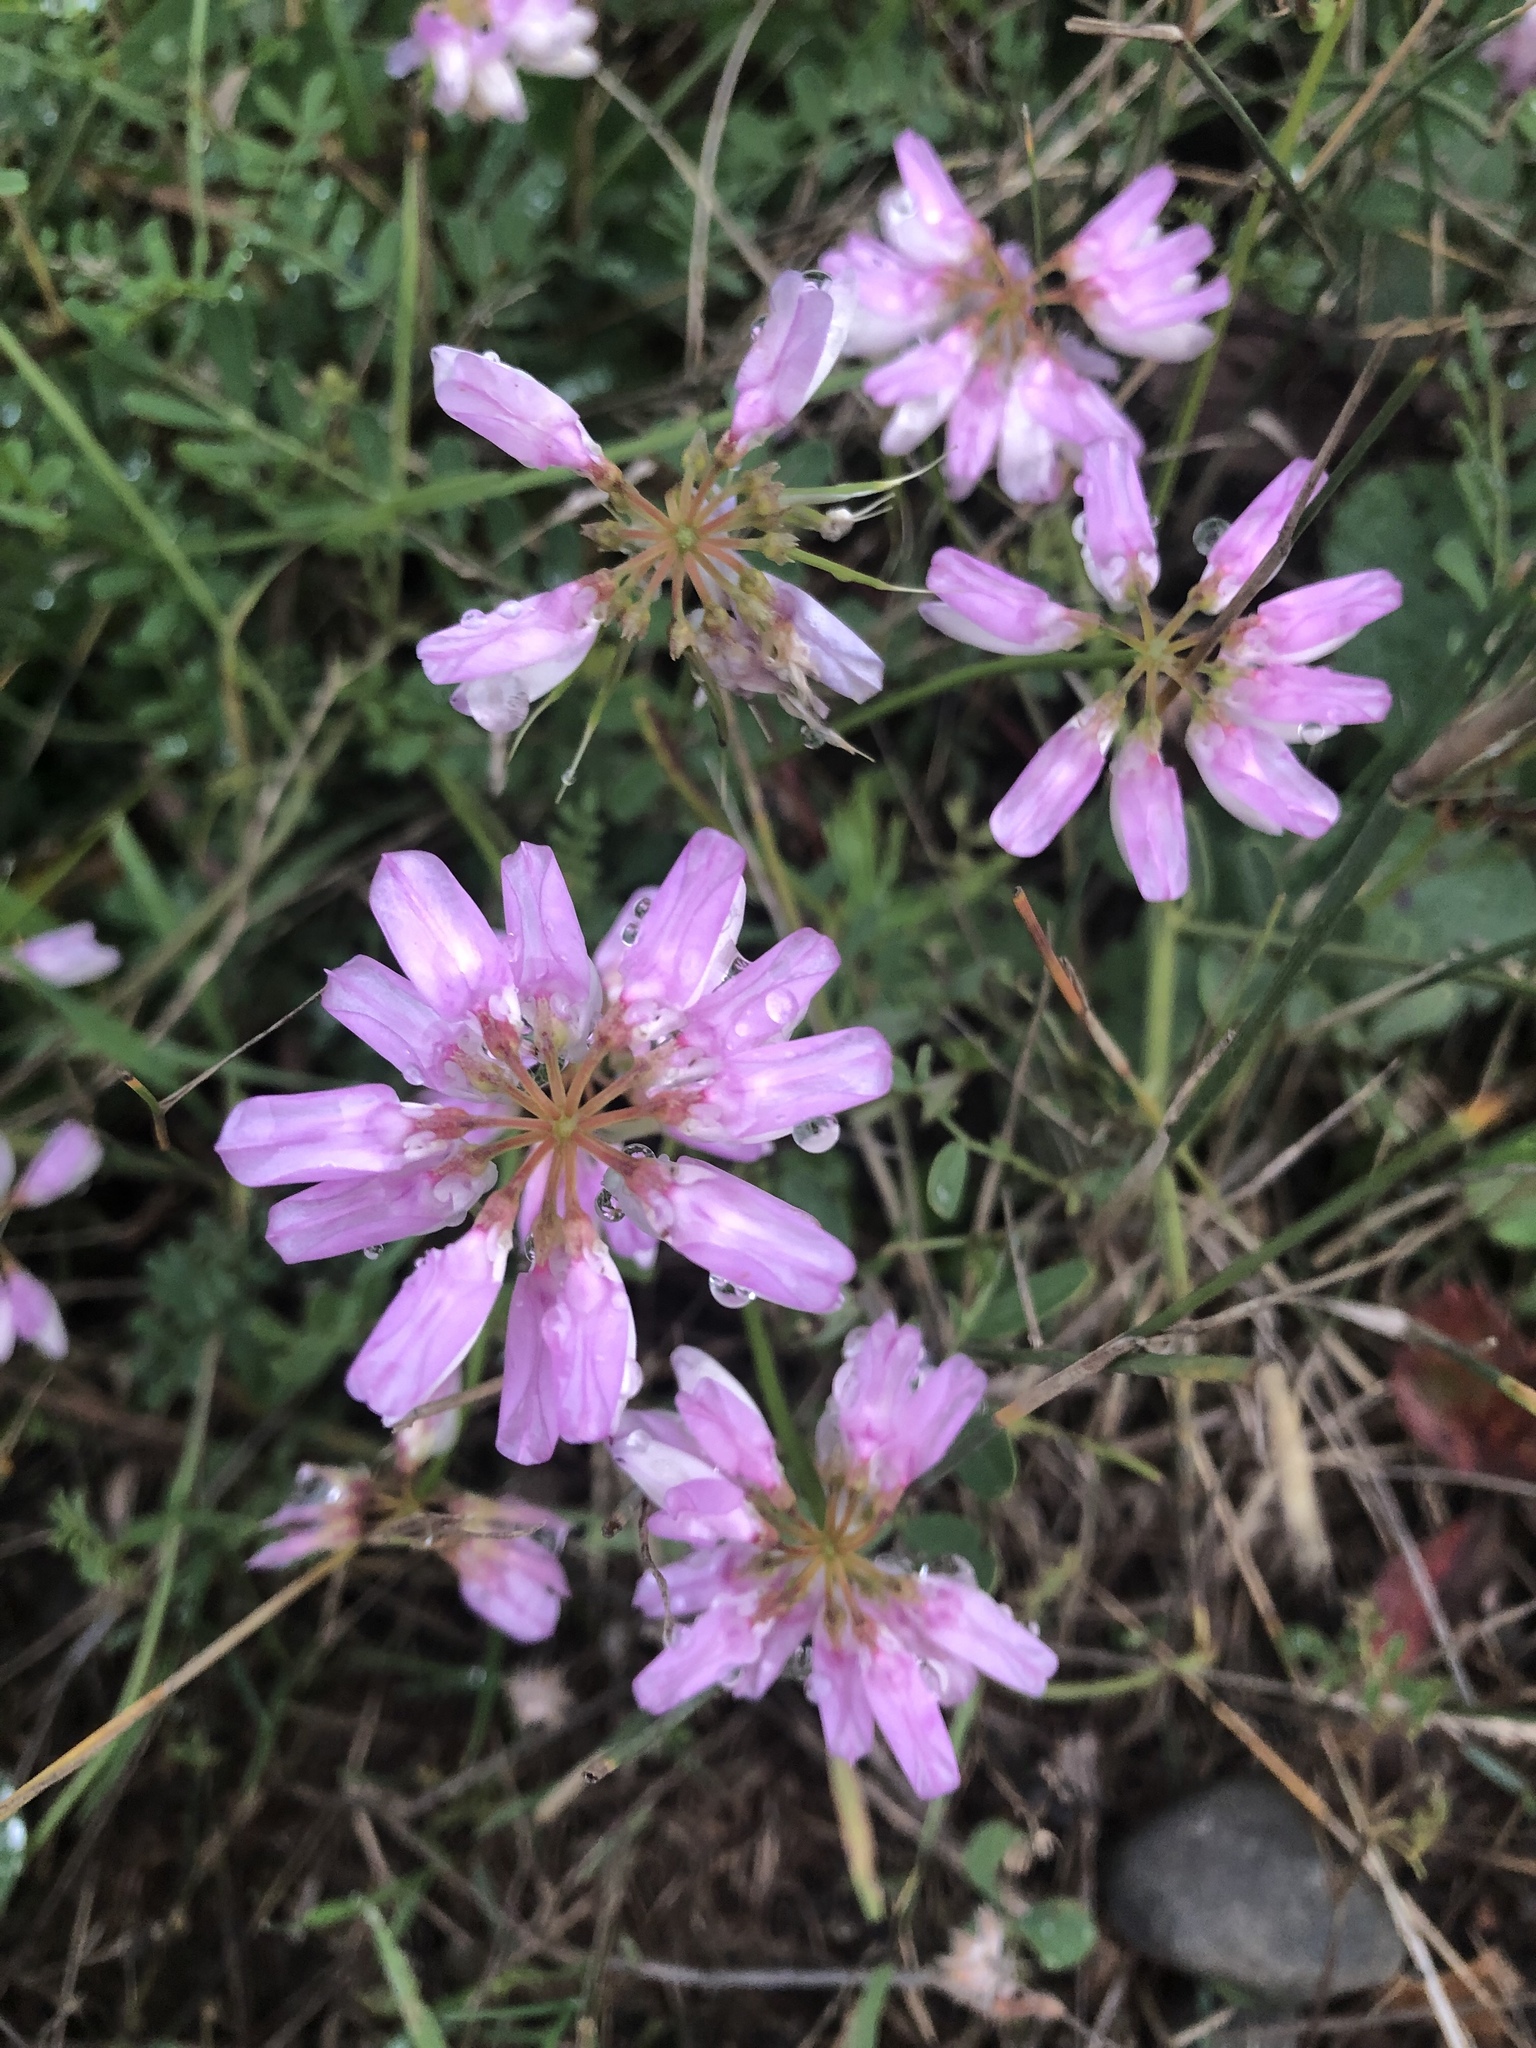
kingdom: Plantae
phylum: Tracheophyta
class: Magnoliopsida
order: Fabales
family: Fabaceae
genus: Coronilla
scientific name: Coronilla varia
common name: Crownvetch
